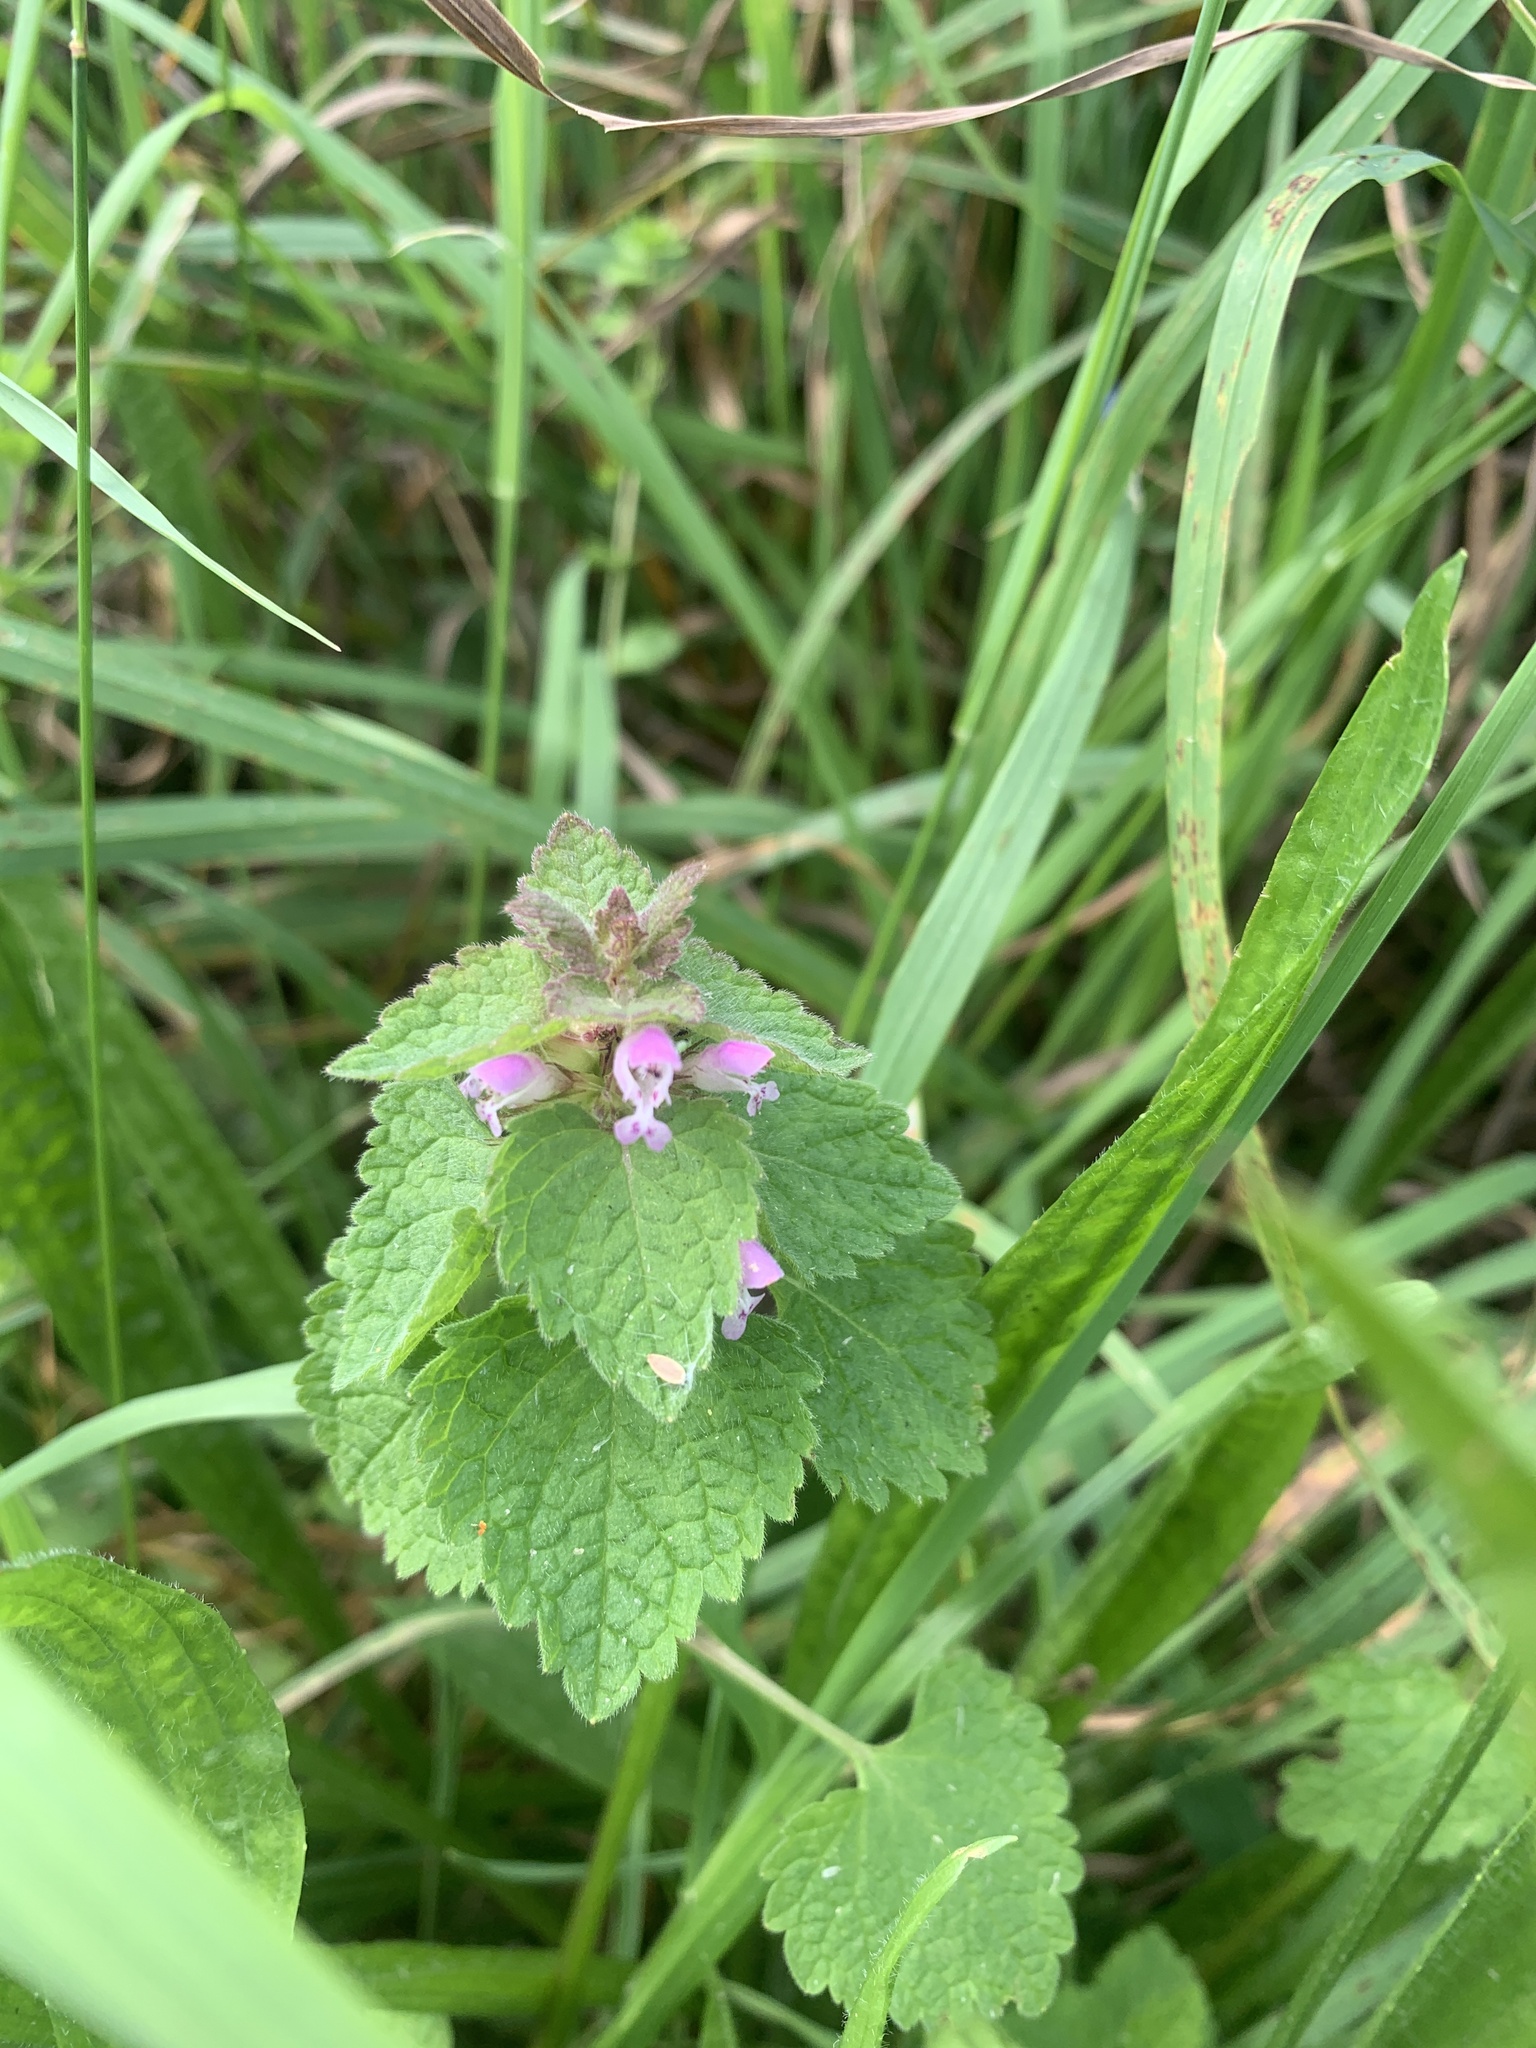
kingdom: Plantae
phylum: Tracheophyta
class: Magnoliopsida
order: Lamiales
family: Lamiaceae
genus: Lamium
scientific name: Lamium purpureum
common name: Red dead-nettle
